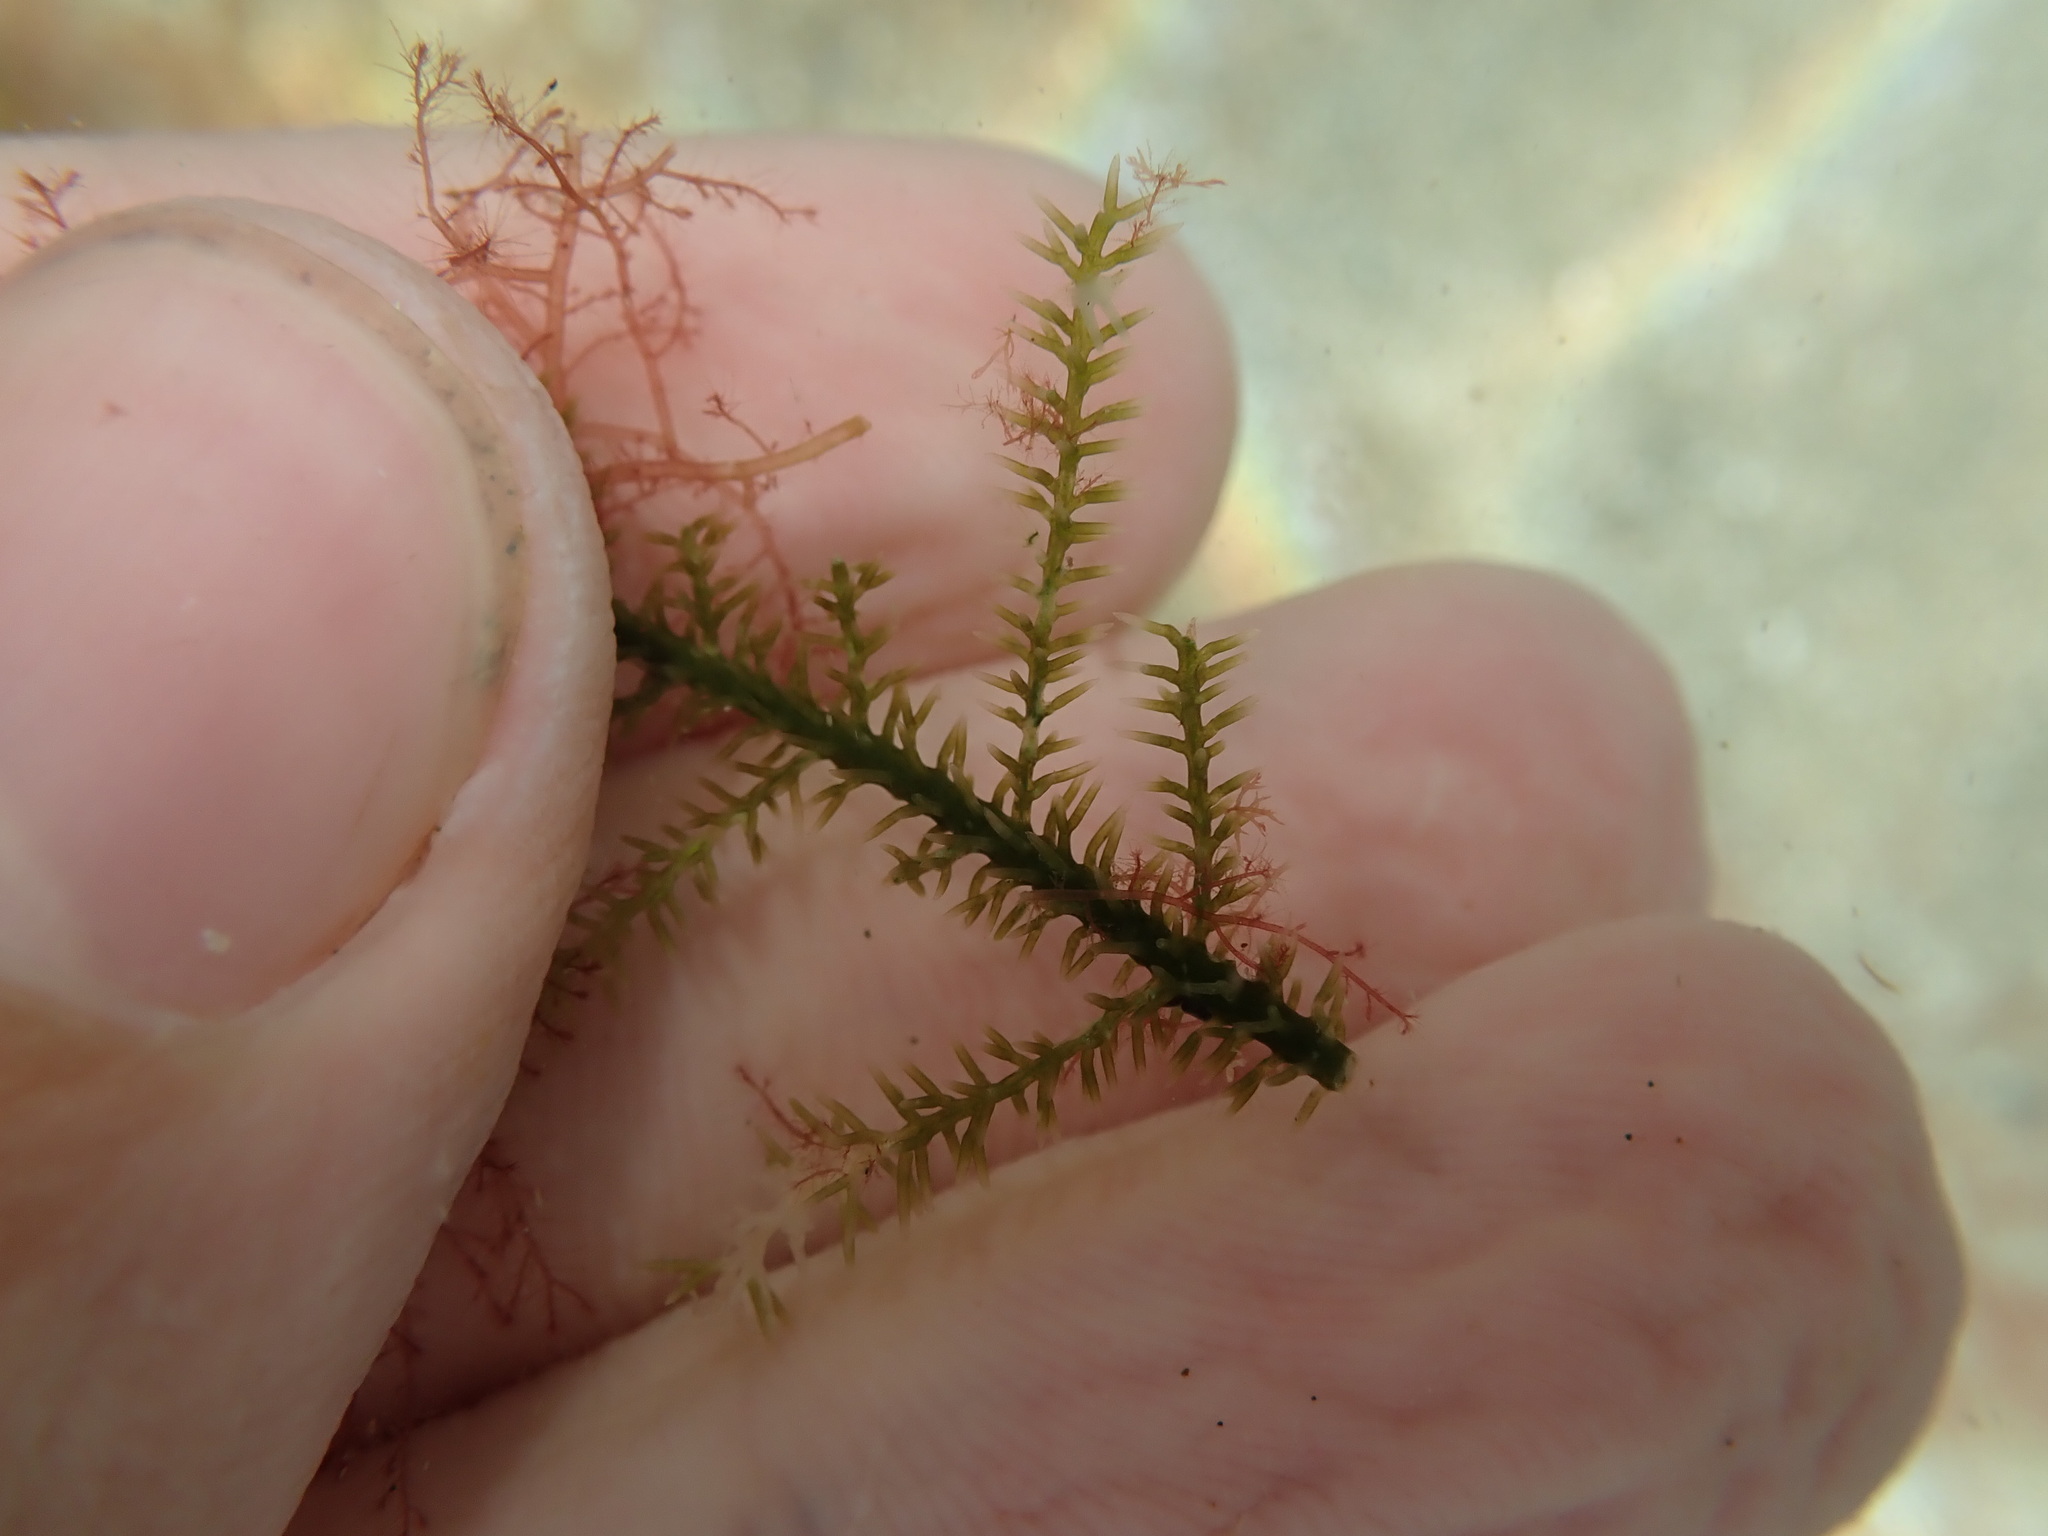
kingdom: Plantae
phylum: Chlorophyta
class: Ulvophyceae
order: Bryopsidales
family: Caulerpaceae
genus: Caulerpa
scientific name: Caulerpa flexilis
